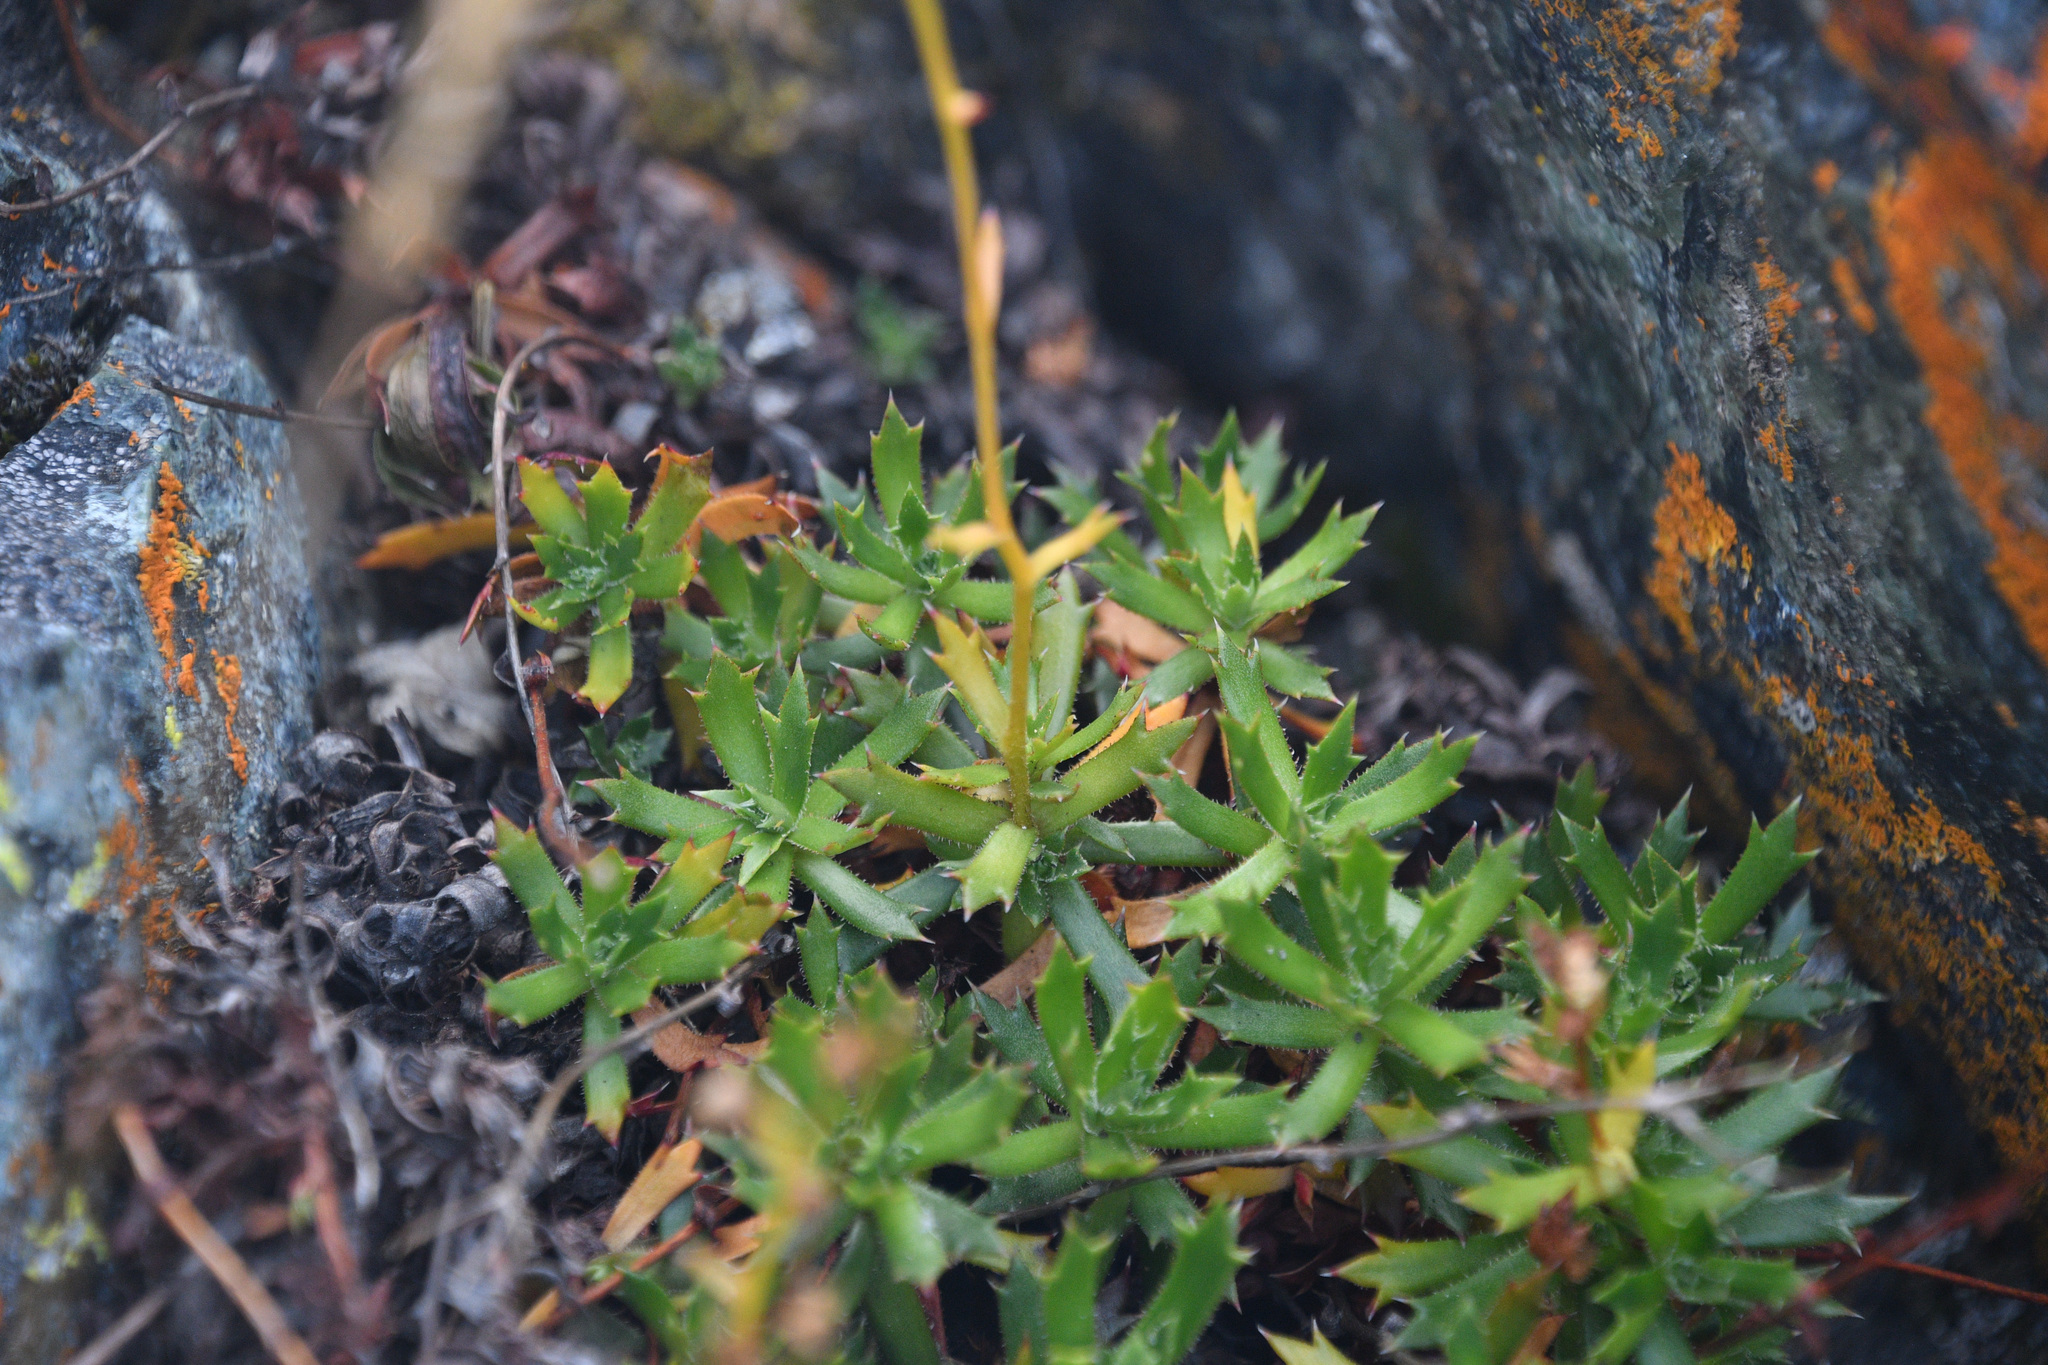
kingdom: Plantae
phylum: Tracheophyta
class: Magnoliopsida
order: Saxifragales
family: Saxifragaceae
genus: Saxifraga
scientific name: Saxifraga tricuspidata
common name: Prickly saxifrage
